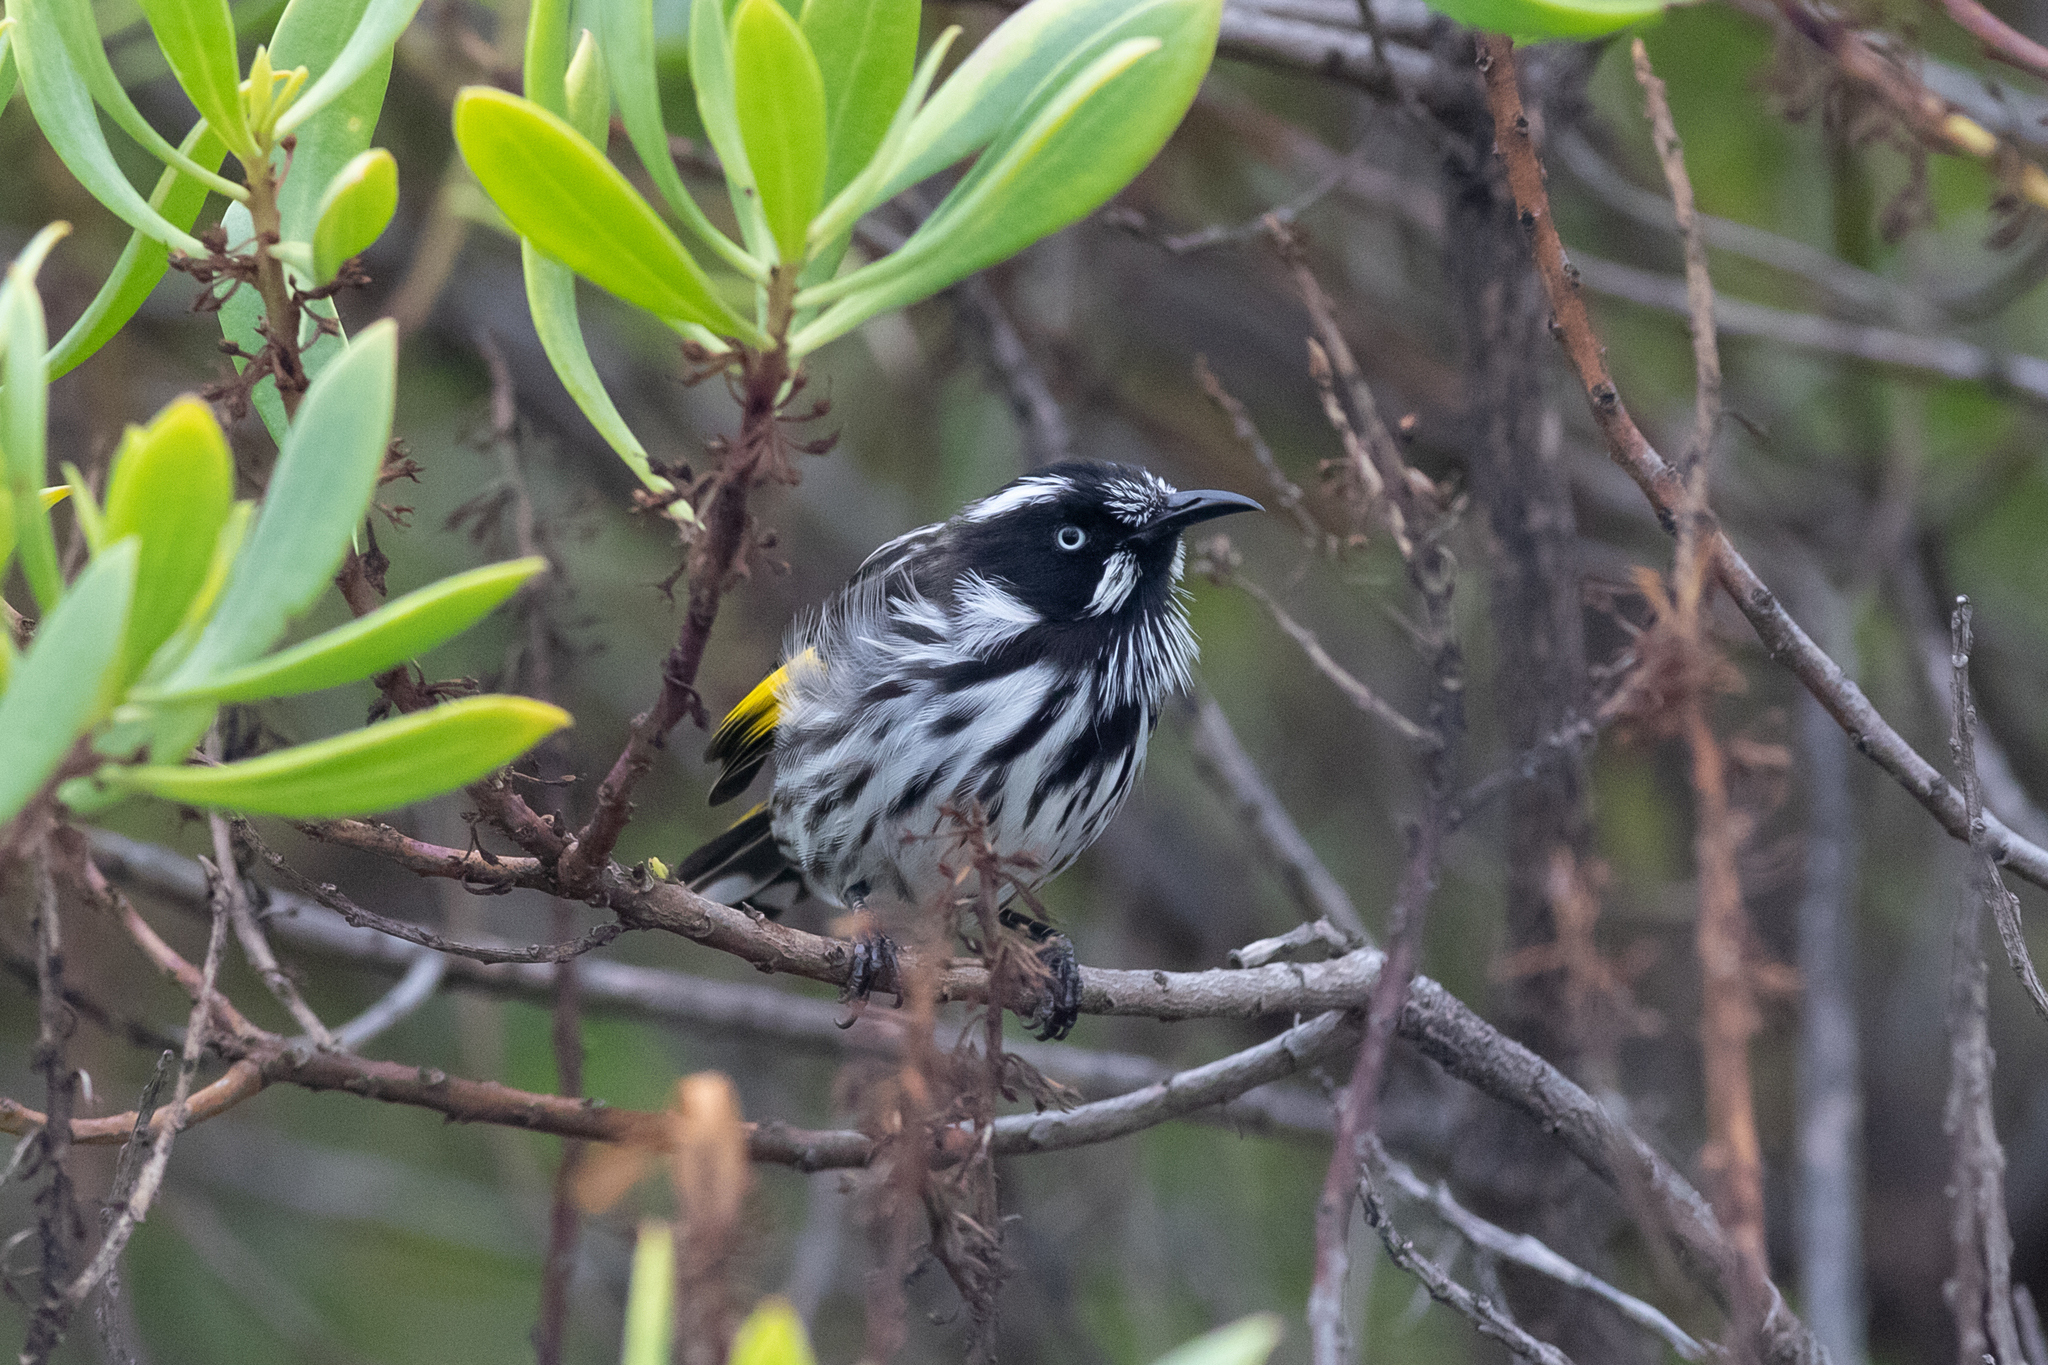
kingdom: Animalia
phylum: Chordata
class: Aves
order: Passeriformes
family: Meliphagidae
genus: Phylidonyris
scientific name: Phylidonyris novaehollandiae
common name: New holland honeyeater
